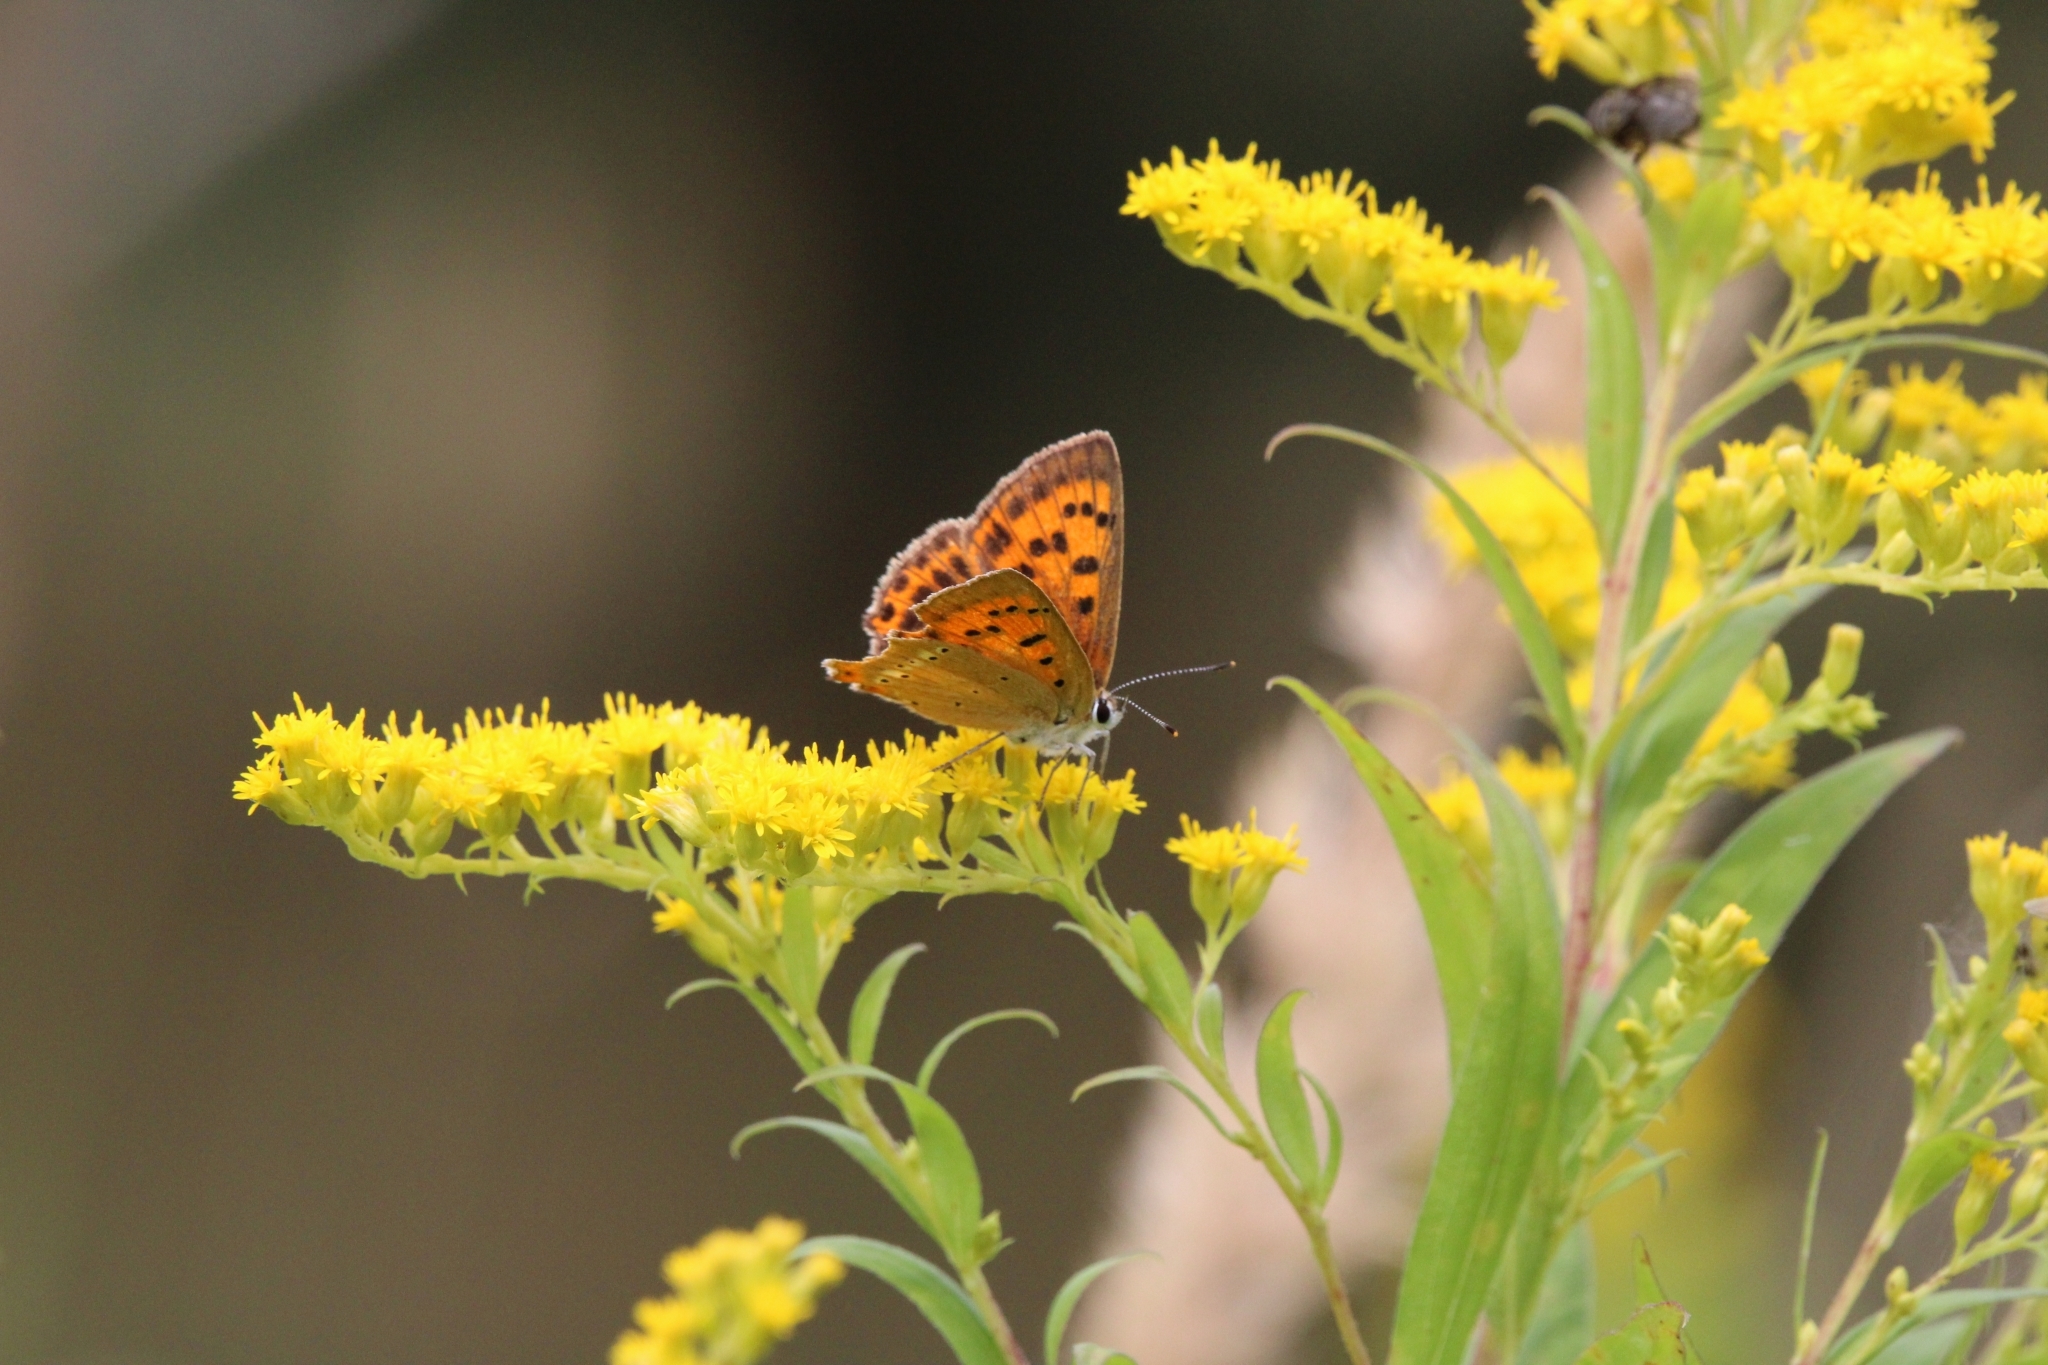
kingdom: Animalia
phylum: Arthropoda
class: Insecta
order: Lepidoptera
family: Lycaenidae
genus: Lycaena
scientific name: Lycaena virgaureae
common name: Scarce copper
